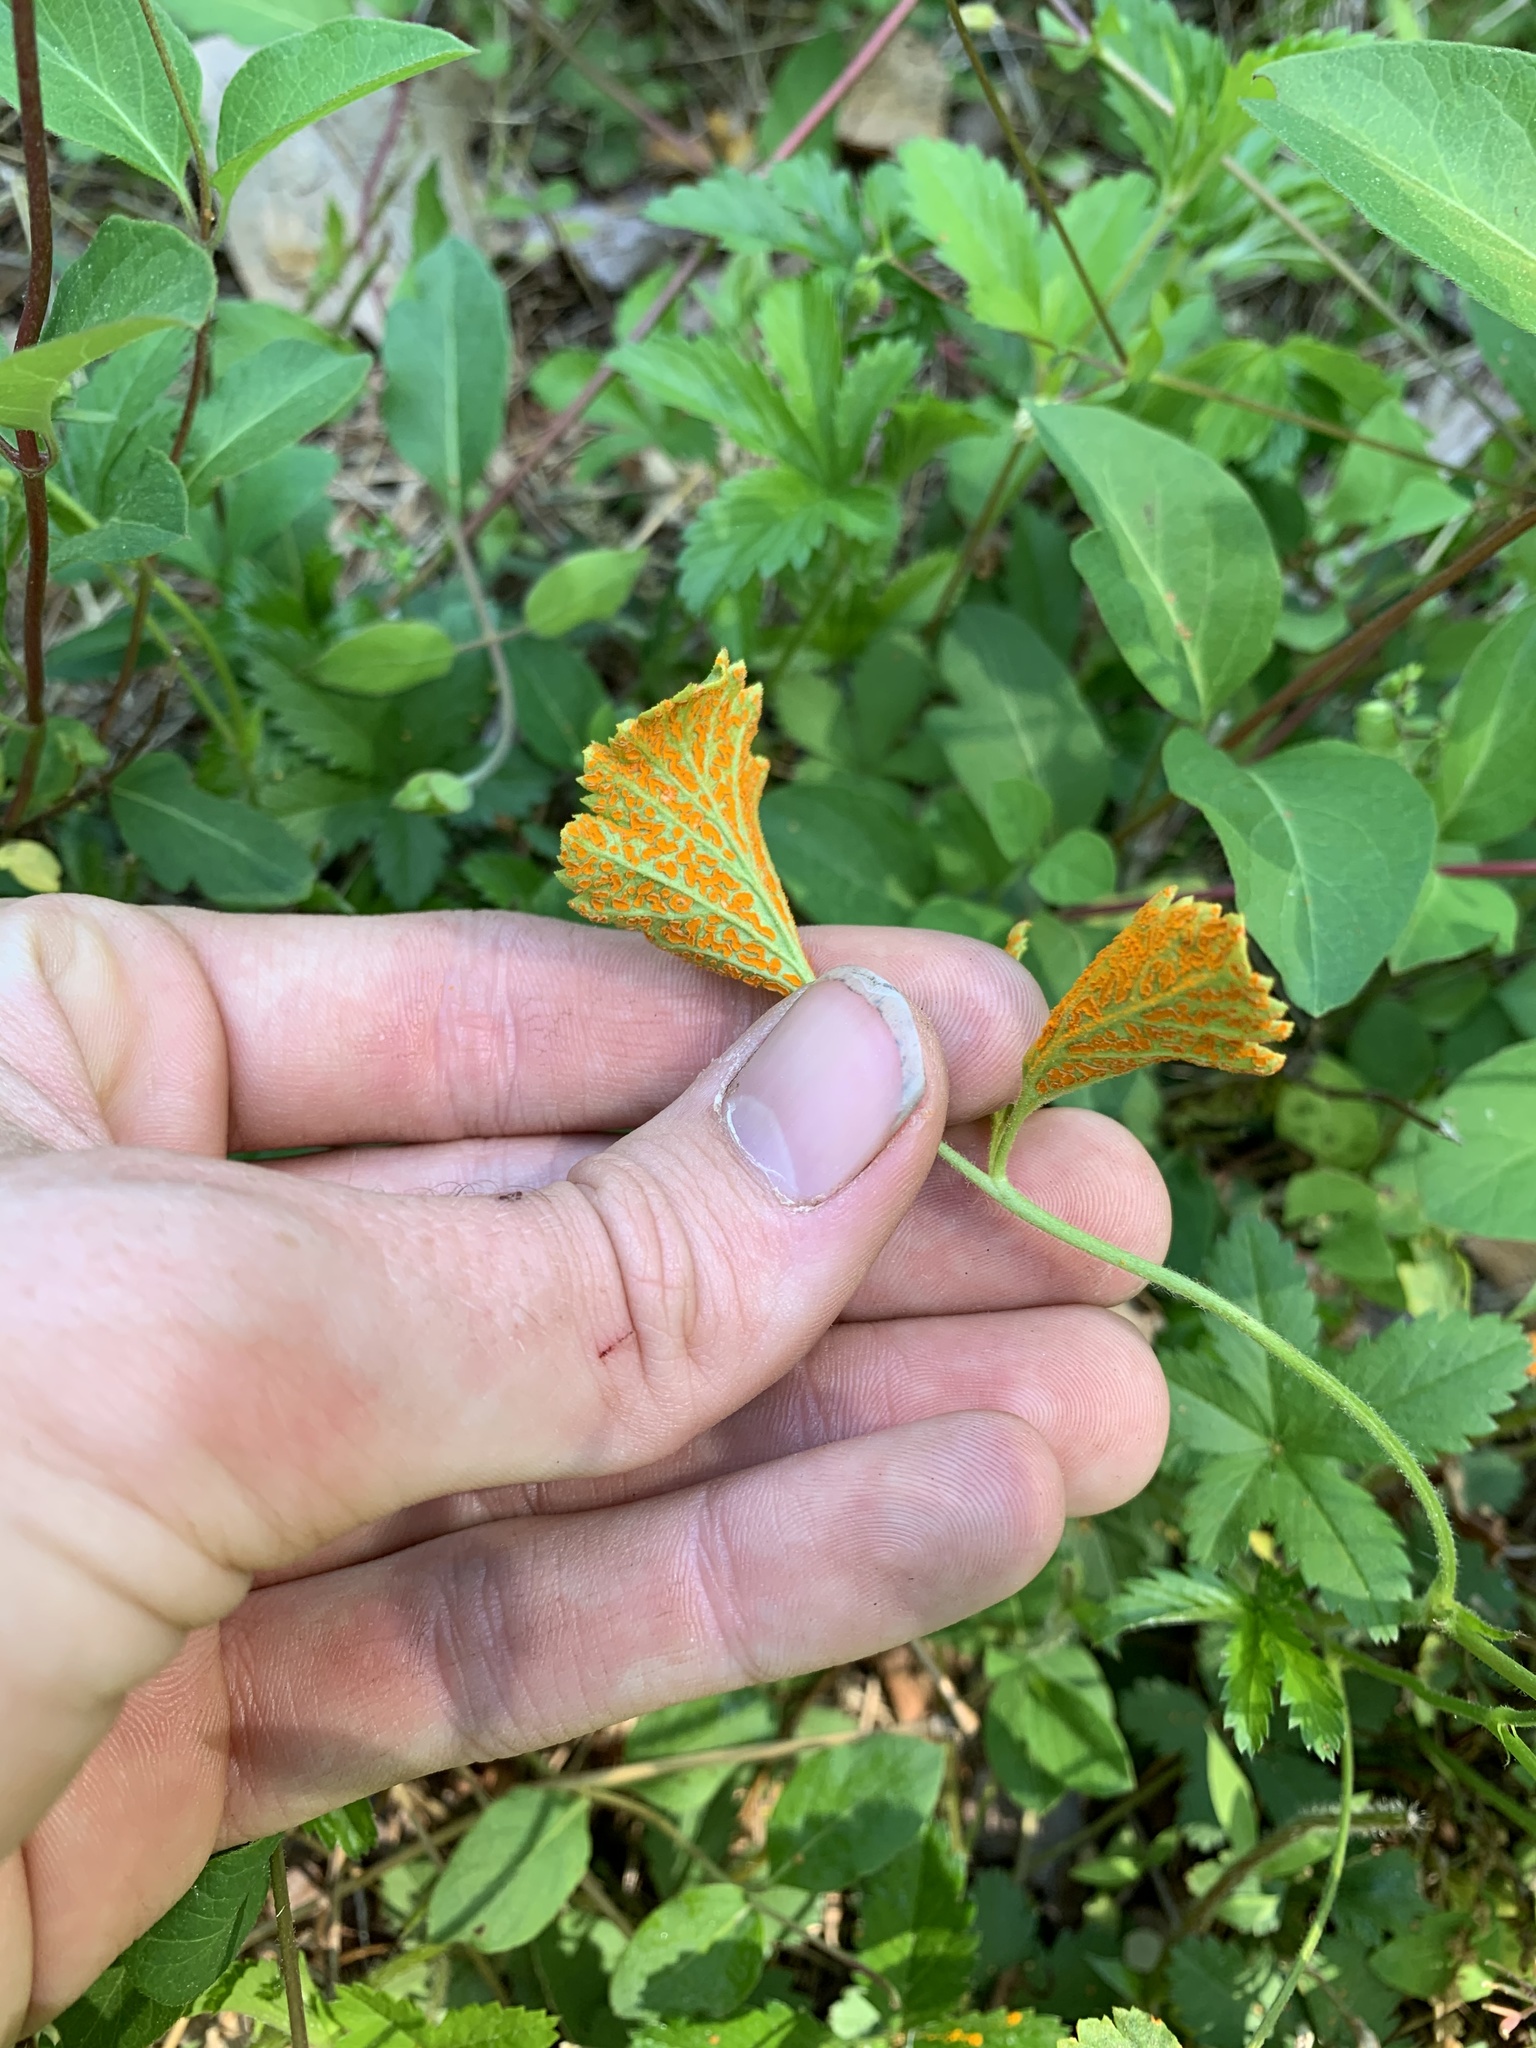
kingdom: Fungi
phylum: Basidiomycota
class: Pucciniomycetes
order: Pucciniales
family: Phragmidiaceae
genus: Arthuriomyces
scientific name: Arthuriomyces peckianus
